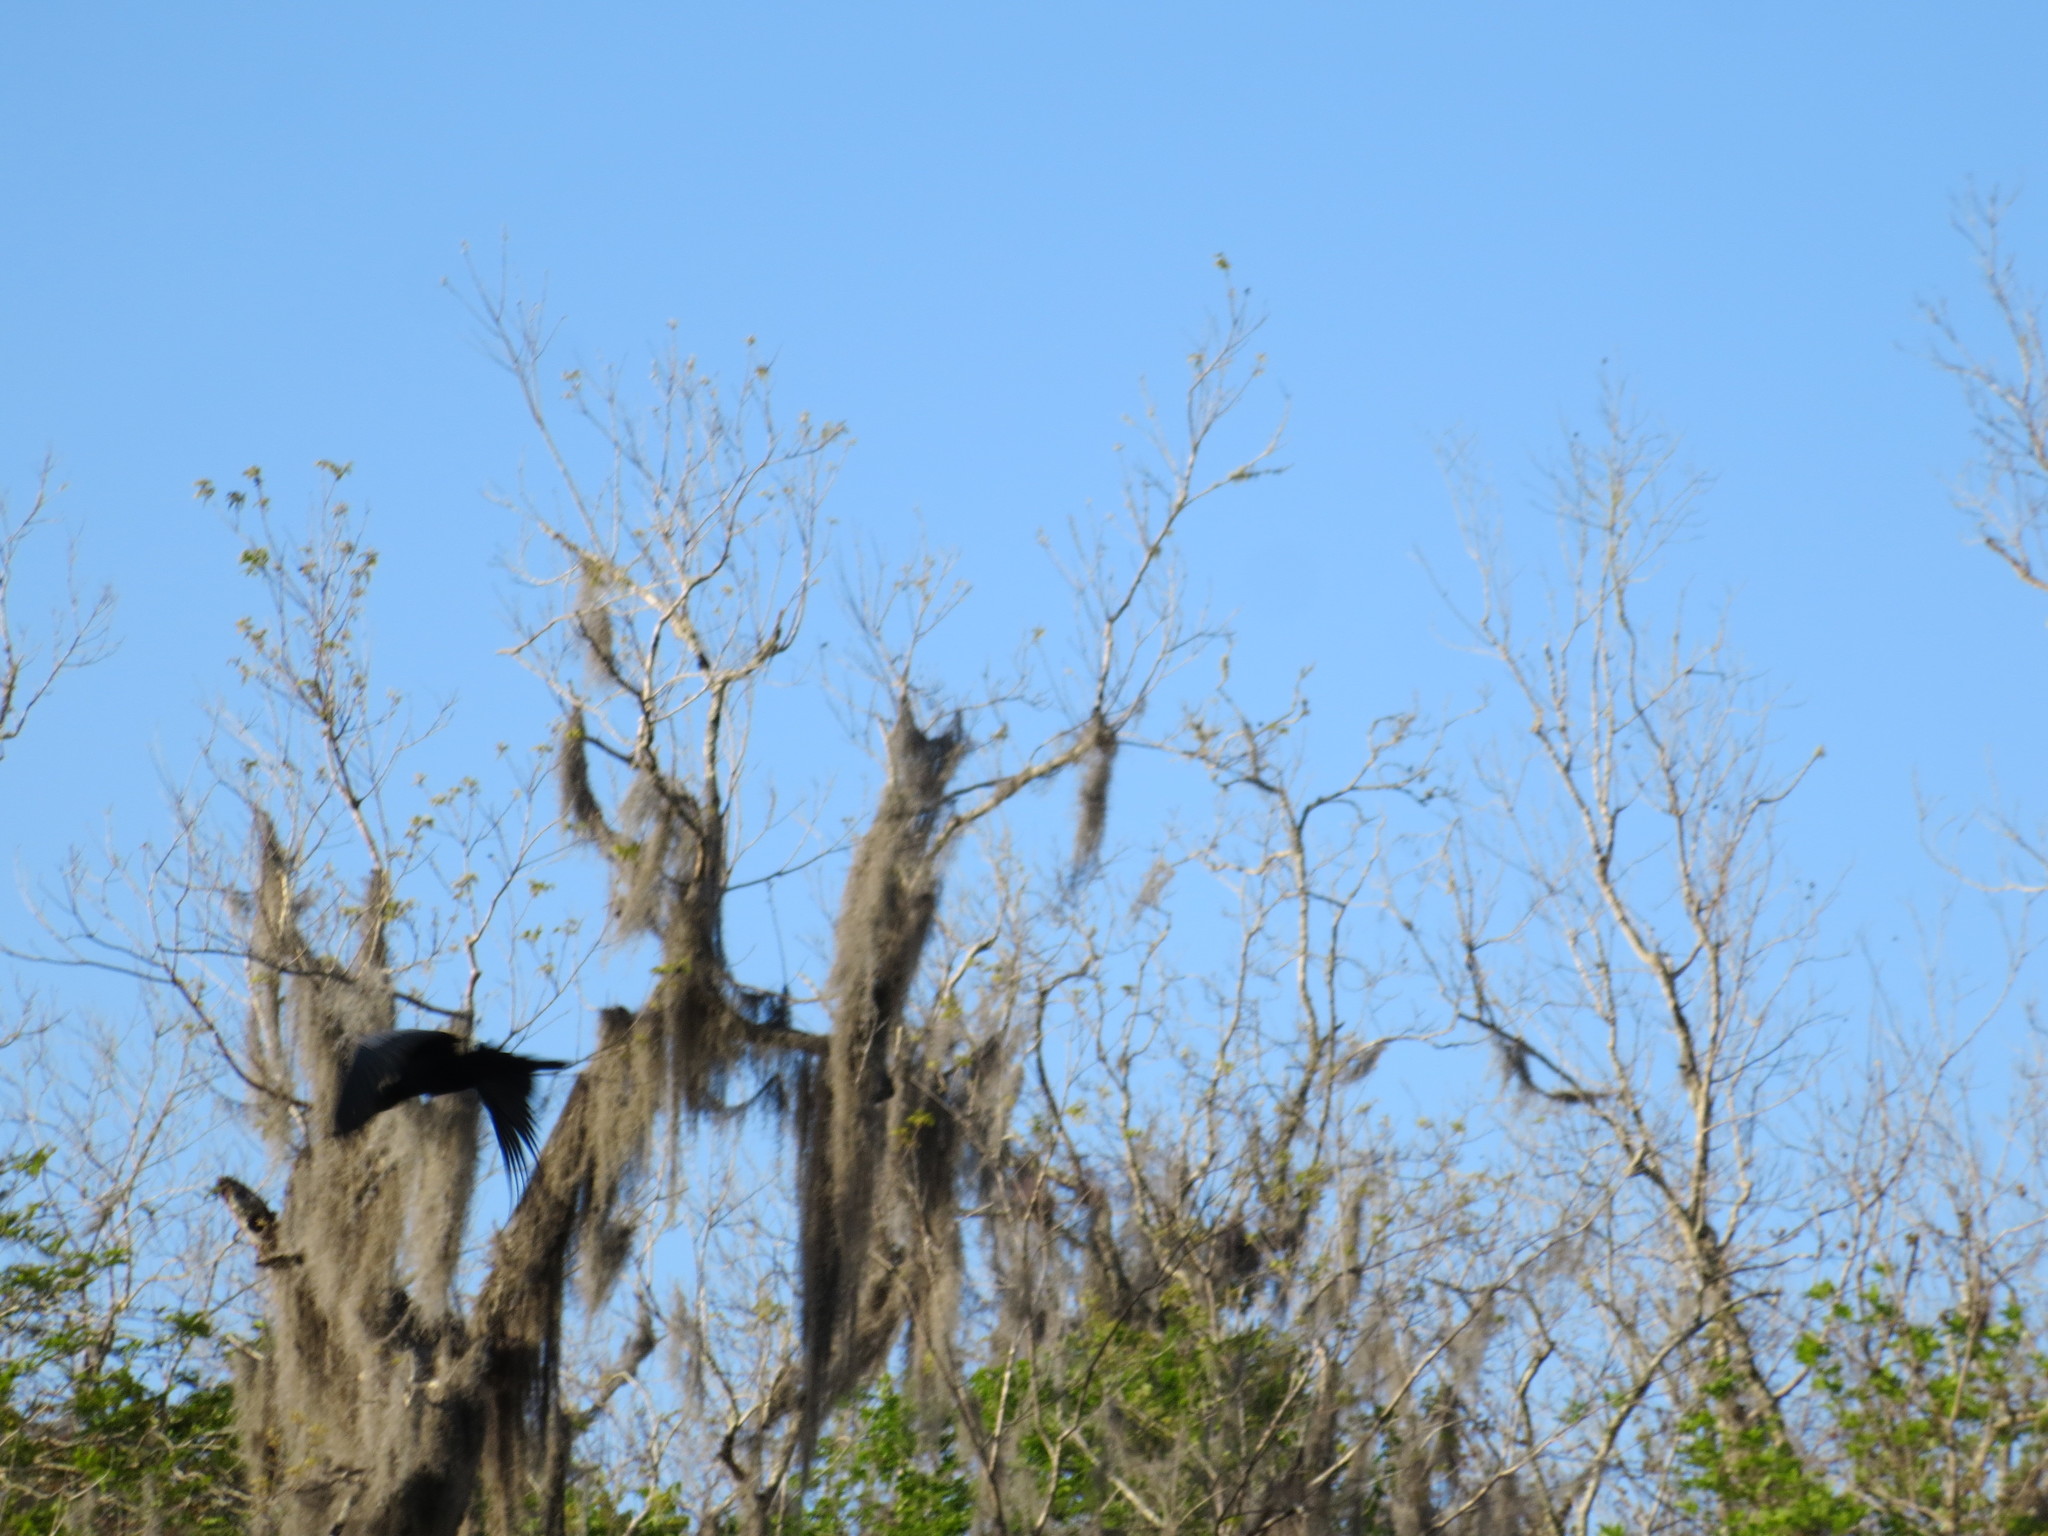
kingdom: Plantae
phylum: Tracheophyta
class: Liliopsida
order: Poales
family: Bromeliaceae
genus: Tillandsia
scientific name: Tillandsia usneoides
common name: Spanish moss
